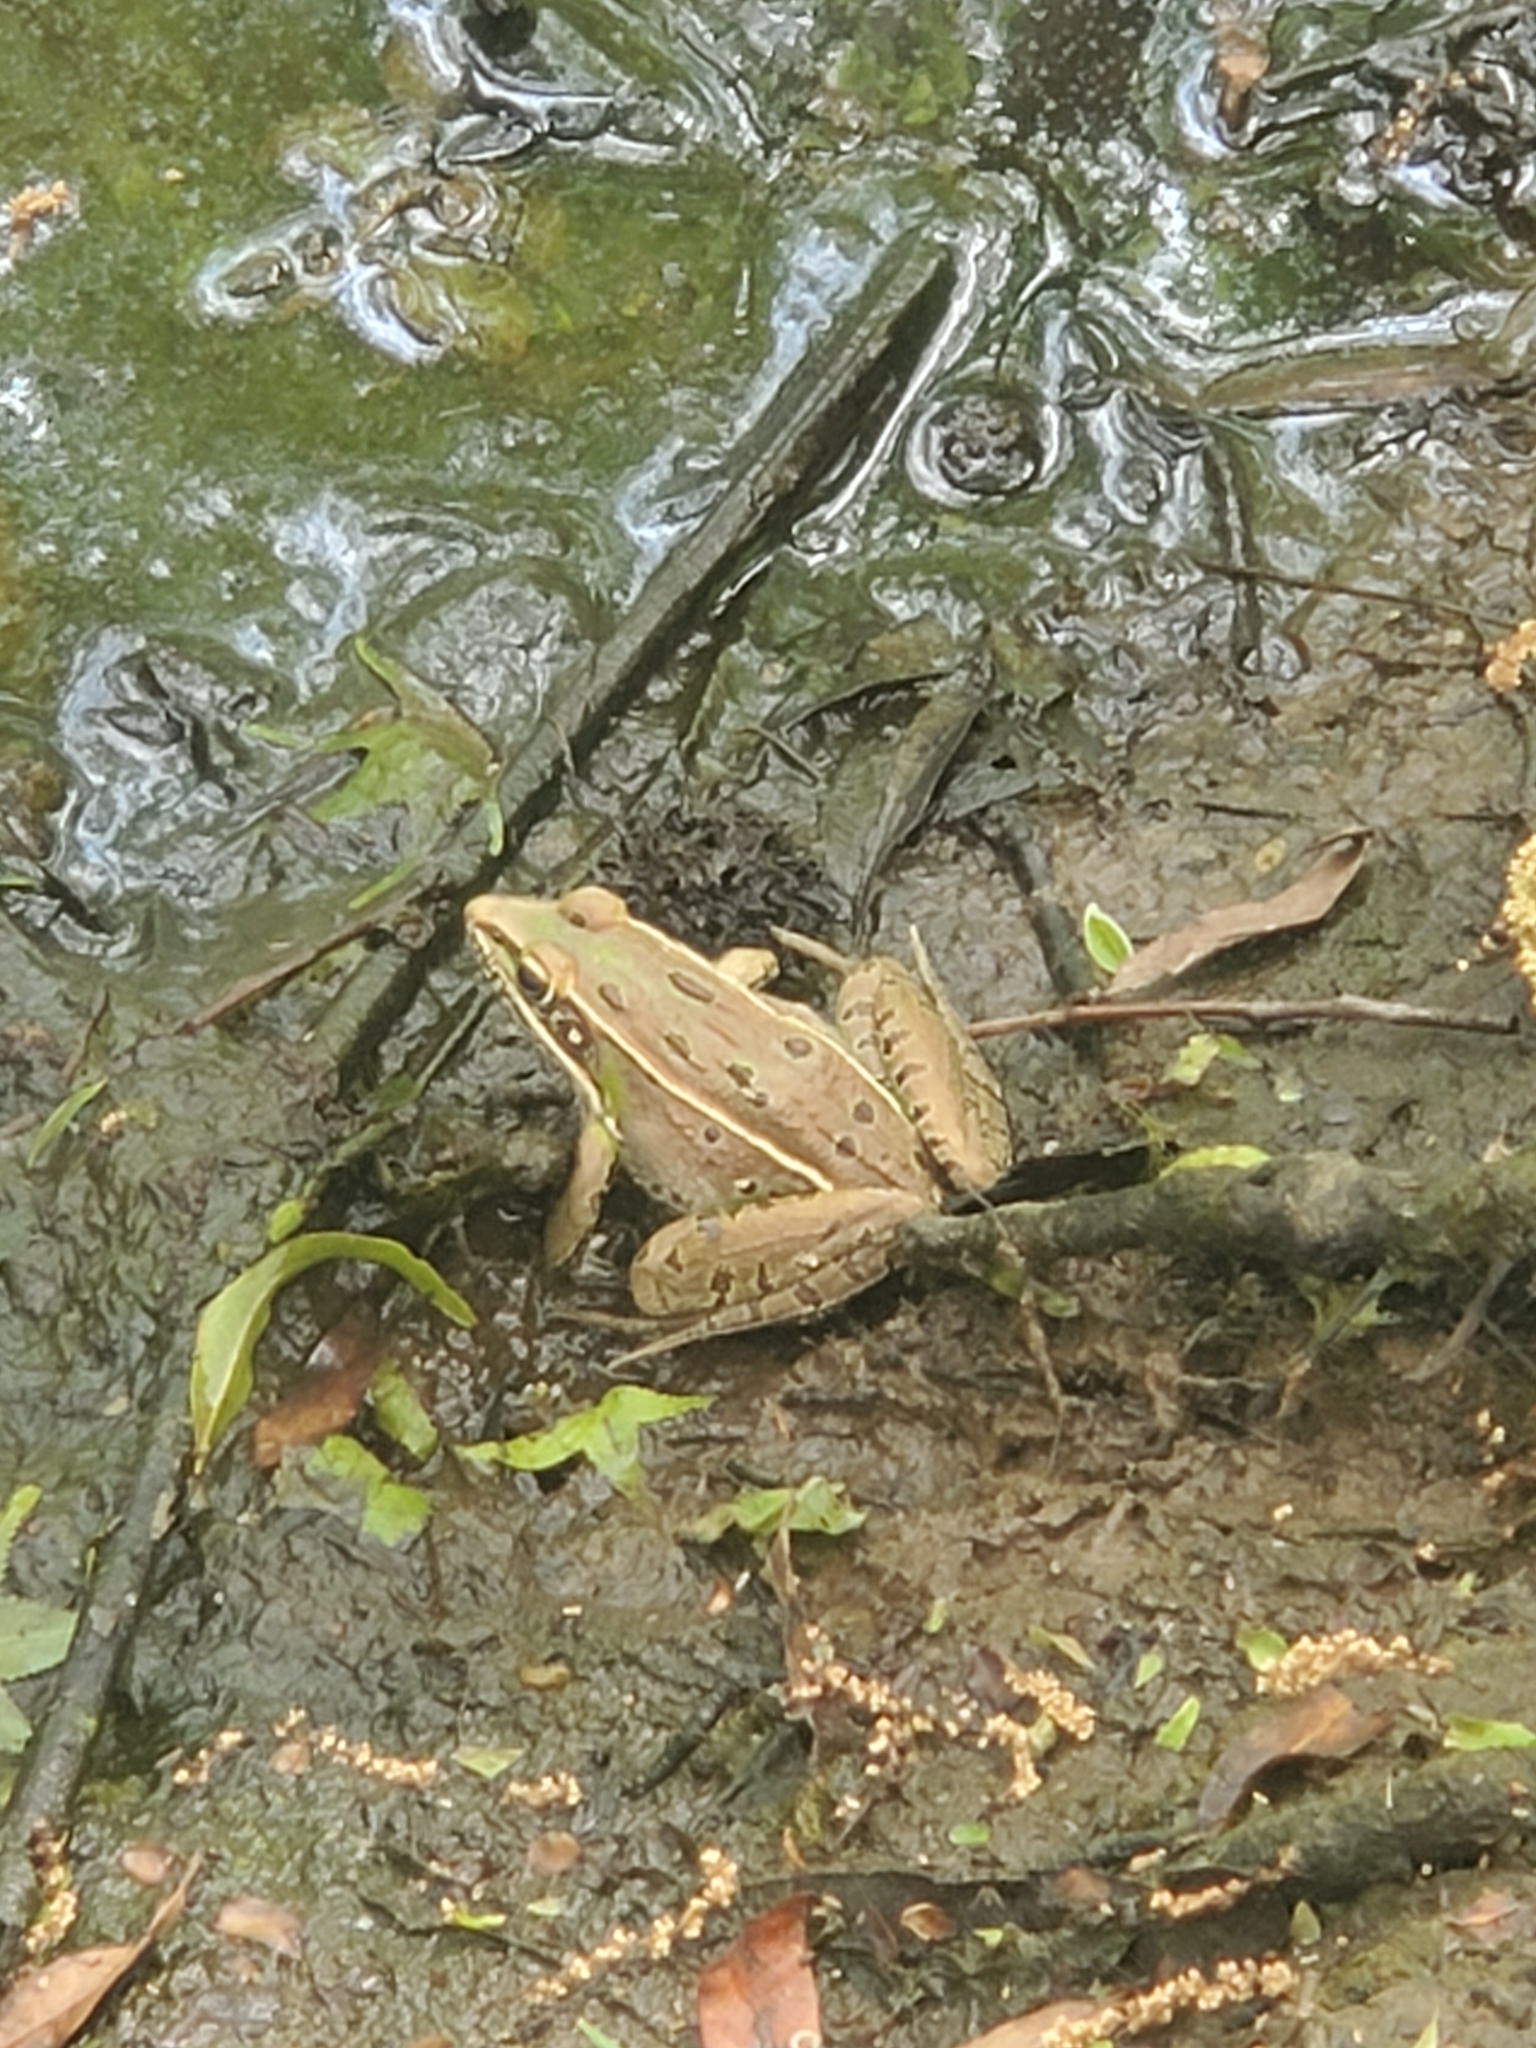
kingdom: Animalia
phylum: Chordata
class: Amphibia
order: Anura
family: Ranidae
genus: Lithobates
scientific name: Lithobates sphenocephalus
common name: Southern leopard frog
